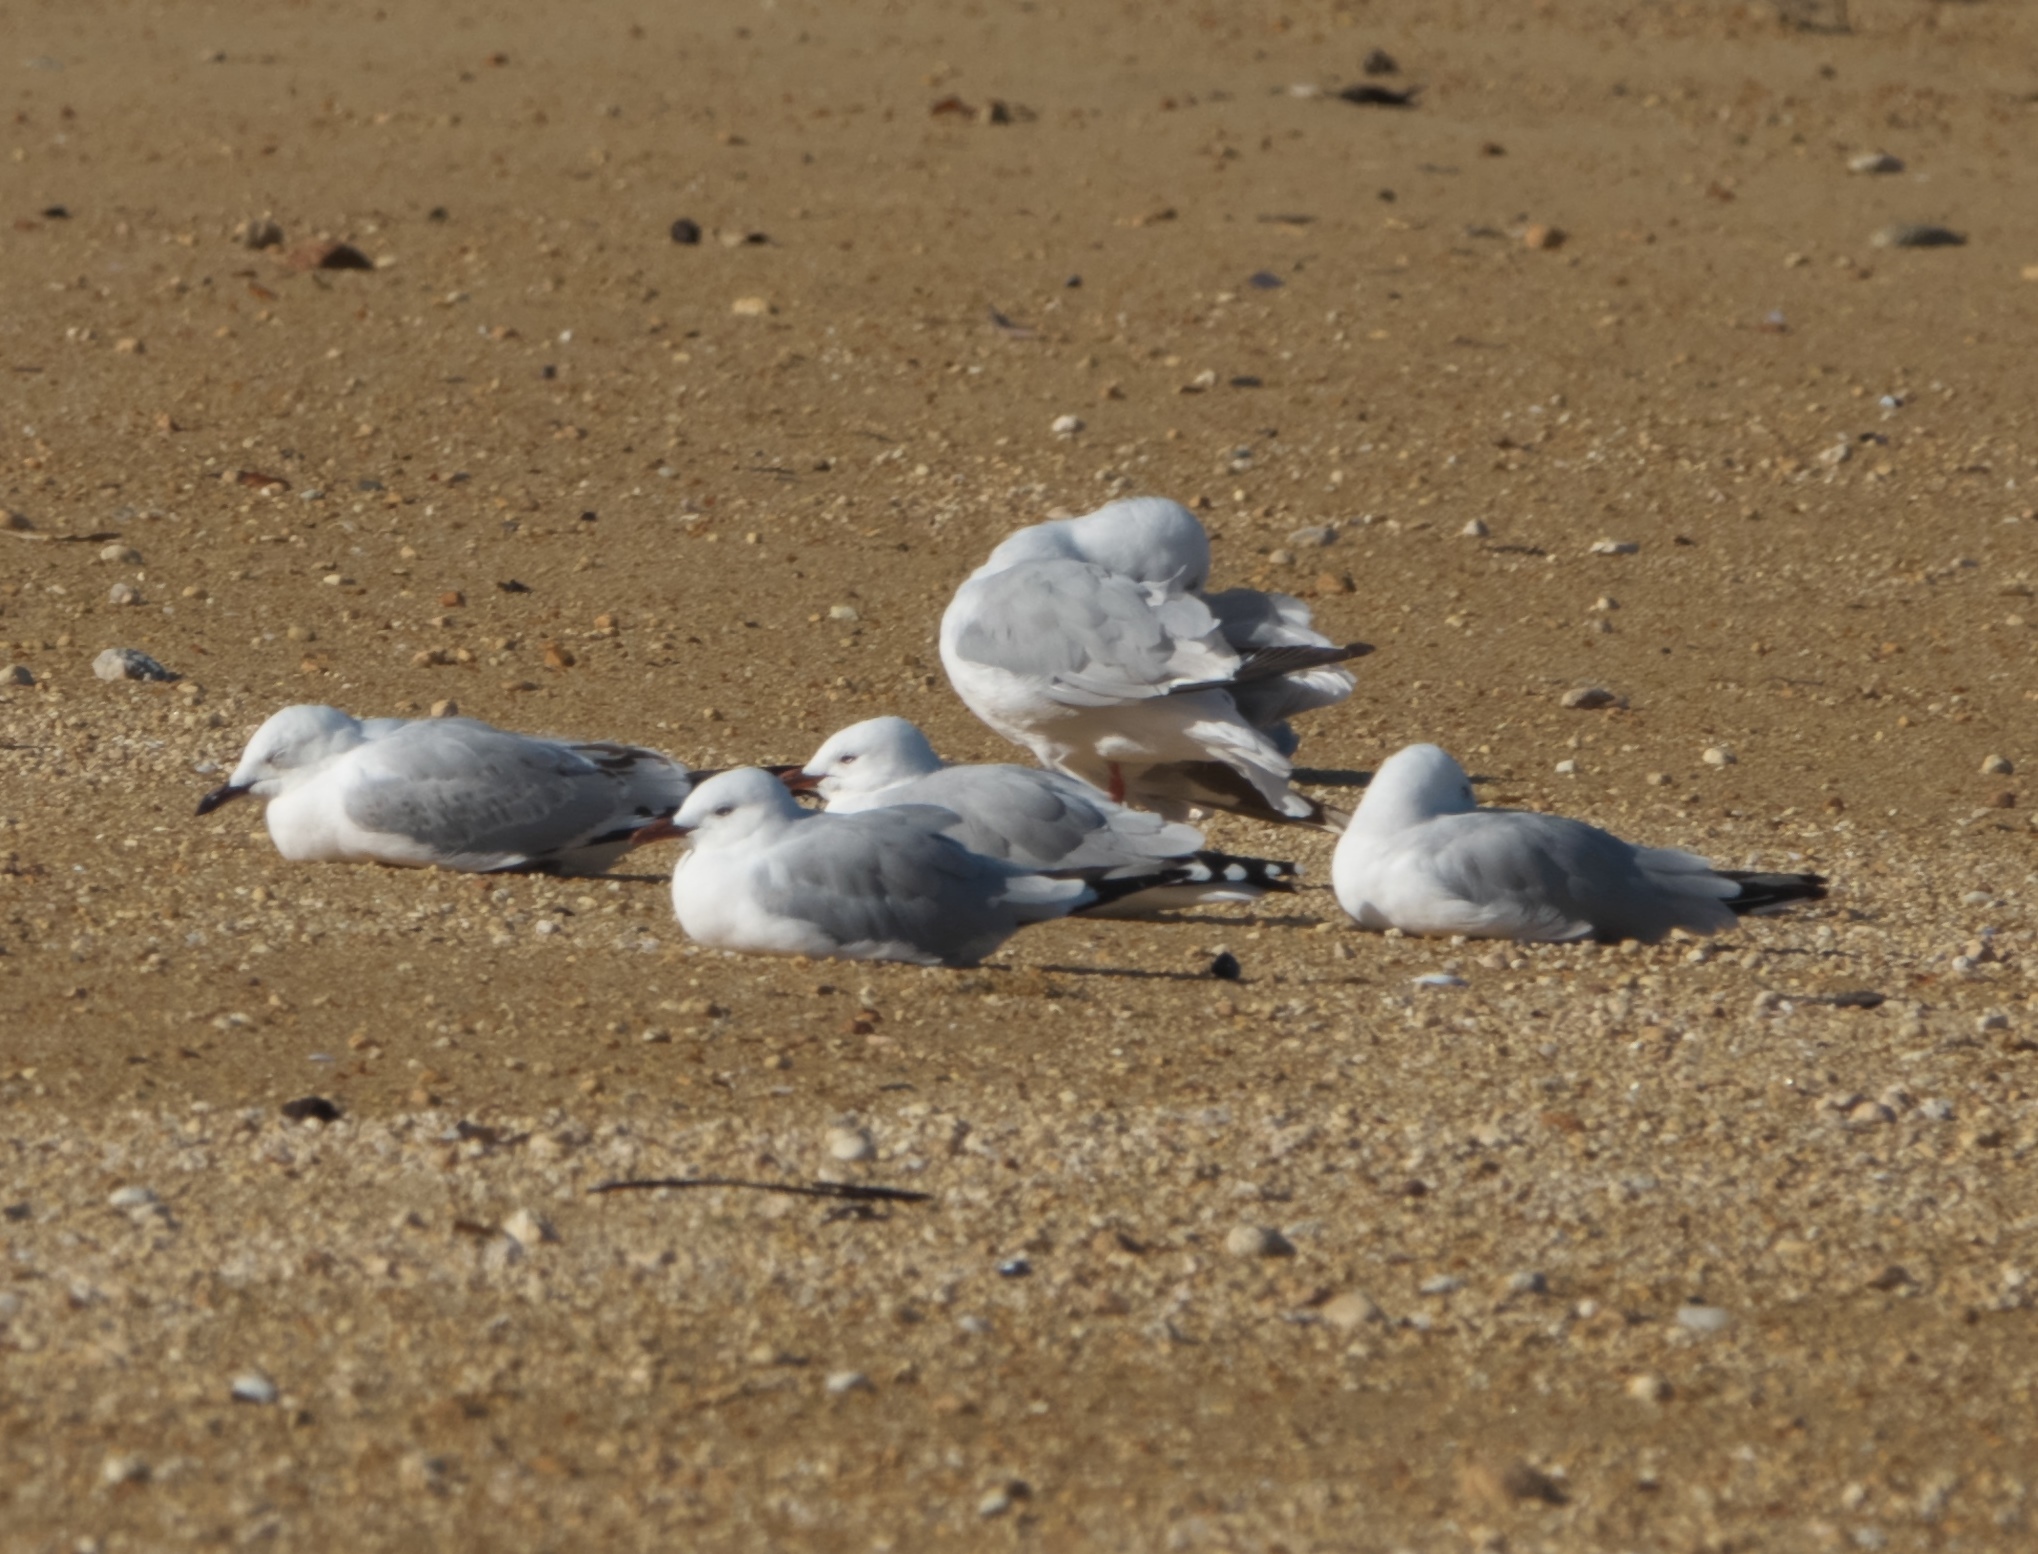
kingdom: Animalia
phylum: Chordata
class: Aves
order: Charadriiformes
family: Laridae
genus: Chroicocephalus
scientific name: Chroicocephalus novaehollandiae
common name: Silver gull
